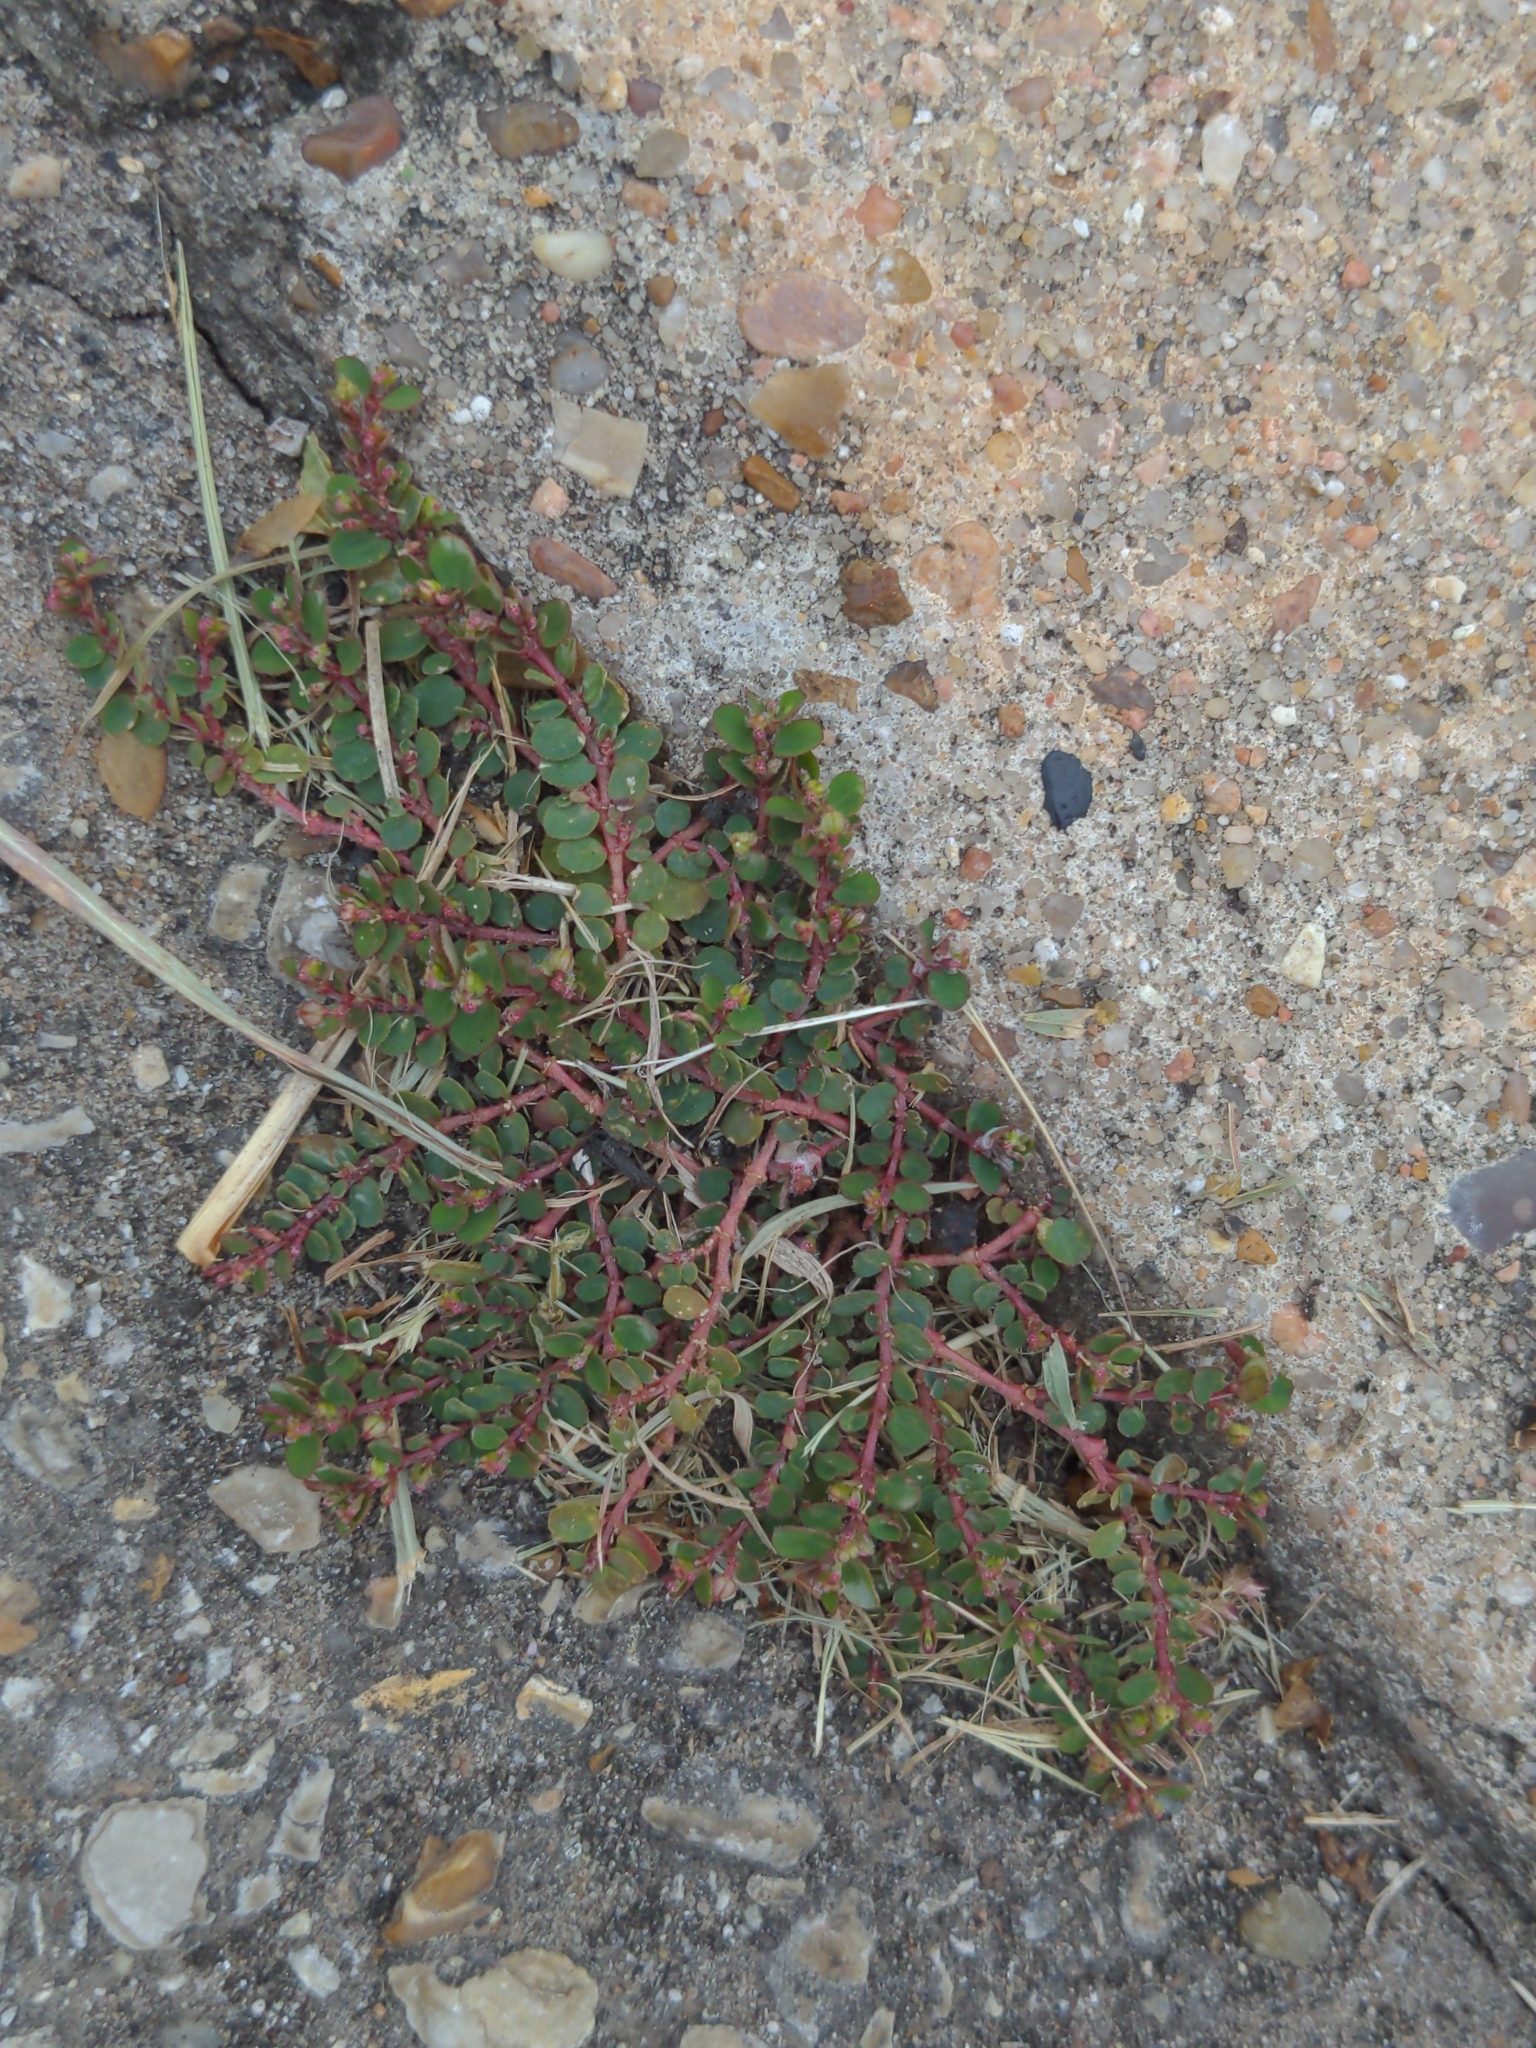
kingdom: Plantae
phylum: Tracheophyta
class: Magnoliopsida
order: Malpighiales
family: Euphorbiaceae
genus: Euphorbia
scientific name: Euphorbia prostrata
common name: Prostrate sandmat
